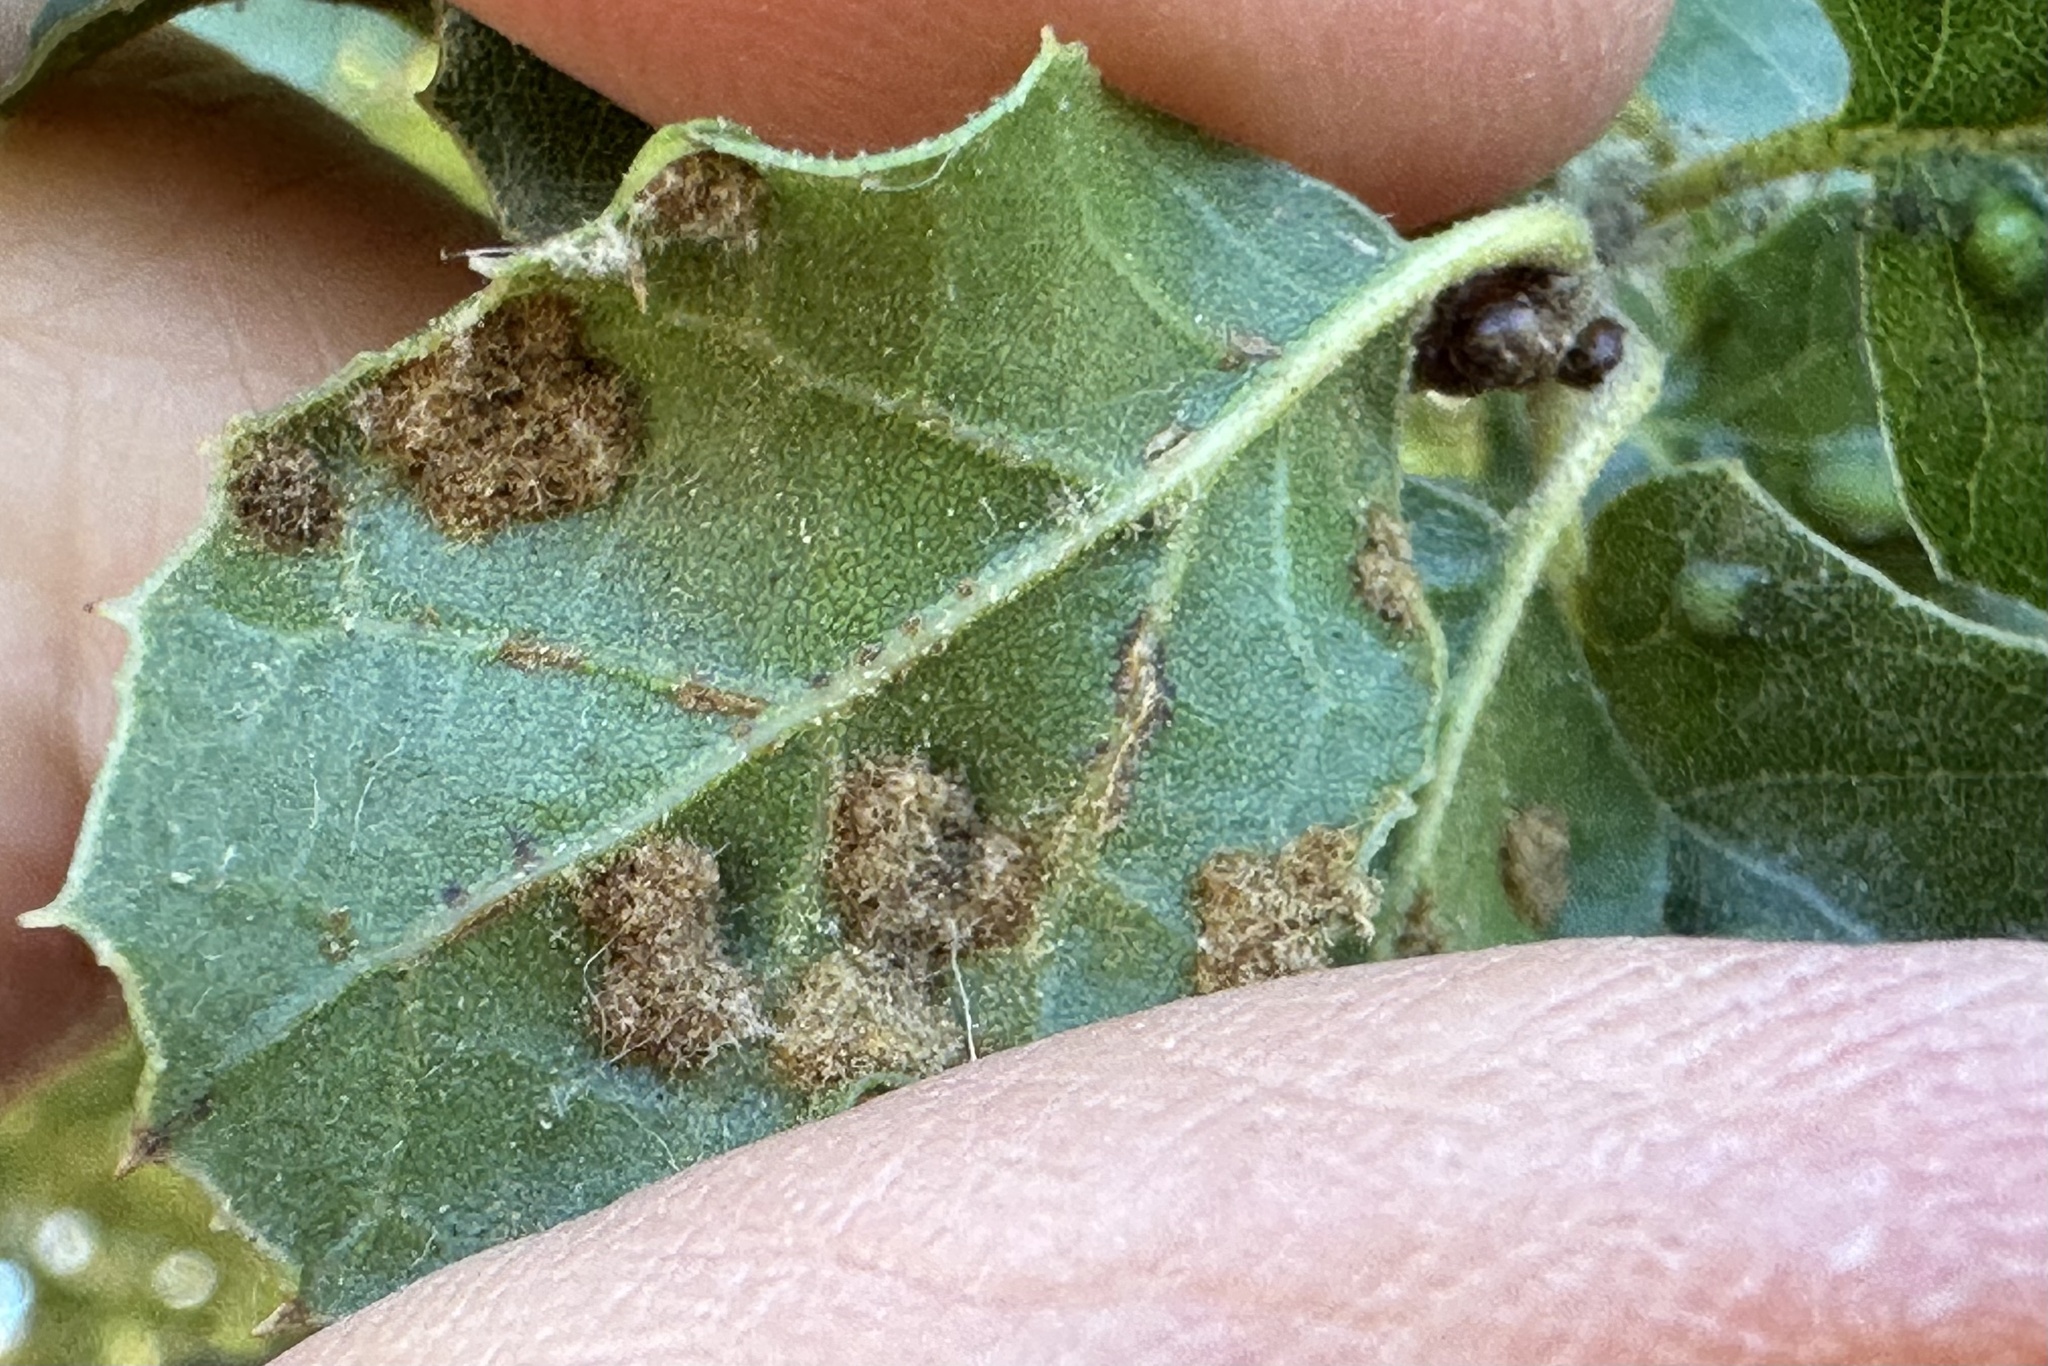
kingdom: Animalia
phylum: Arthropoda
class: Arachnida
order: Trombidiformes
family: Eriophyidae
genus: Aceria
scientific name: Aceria
